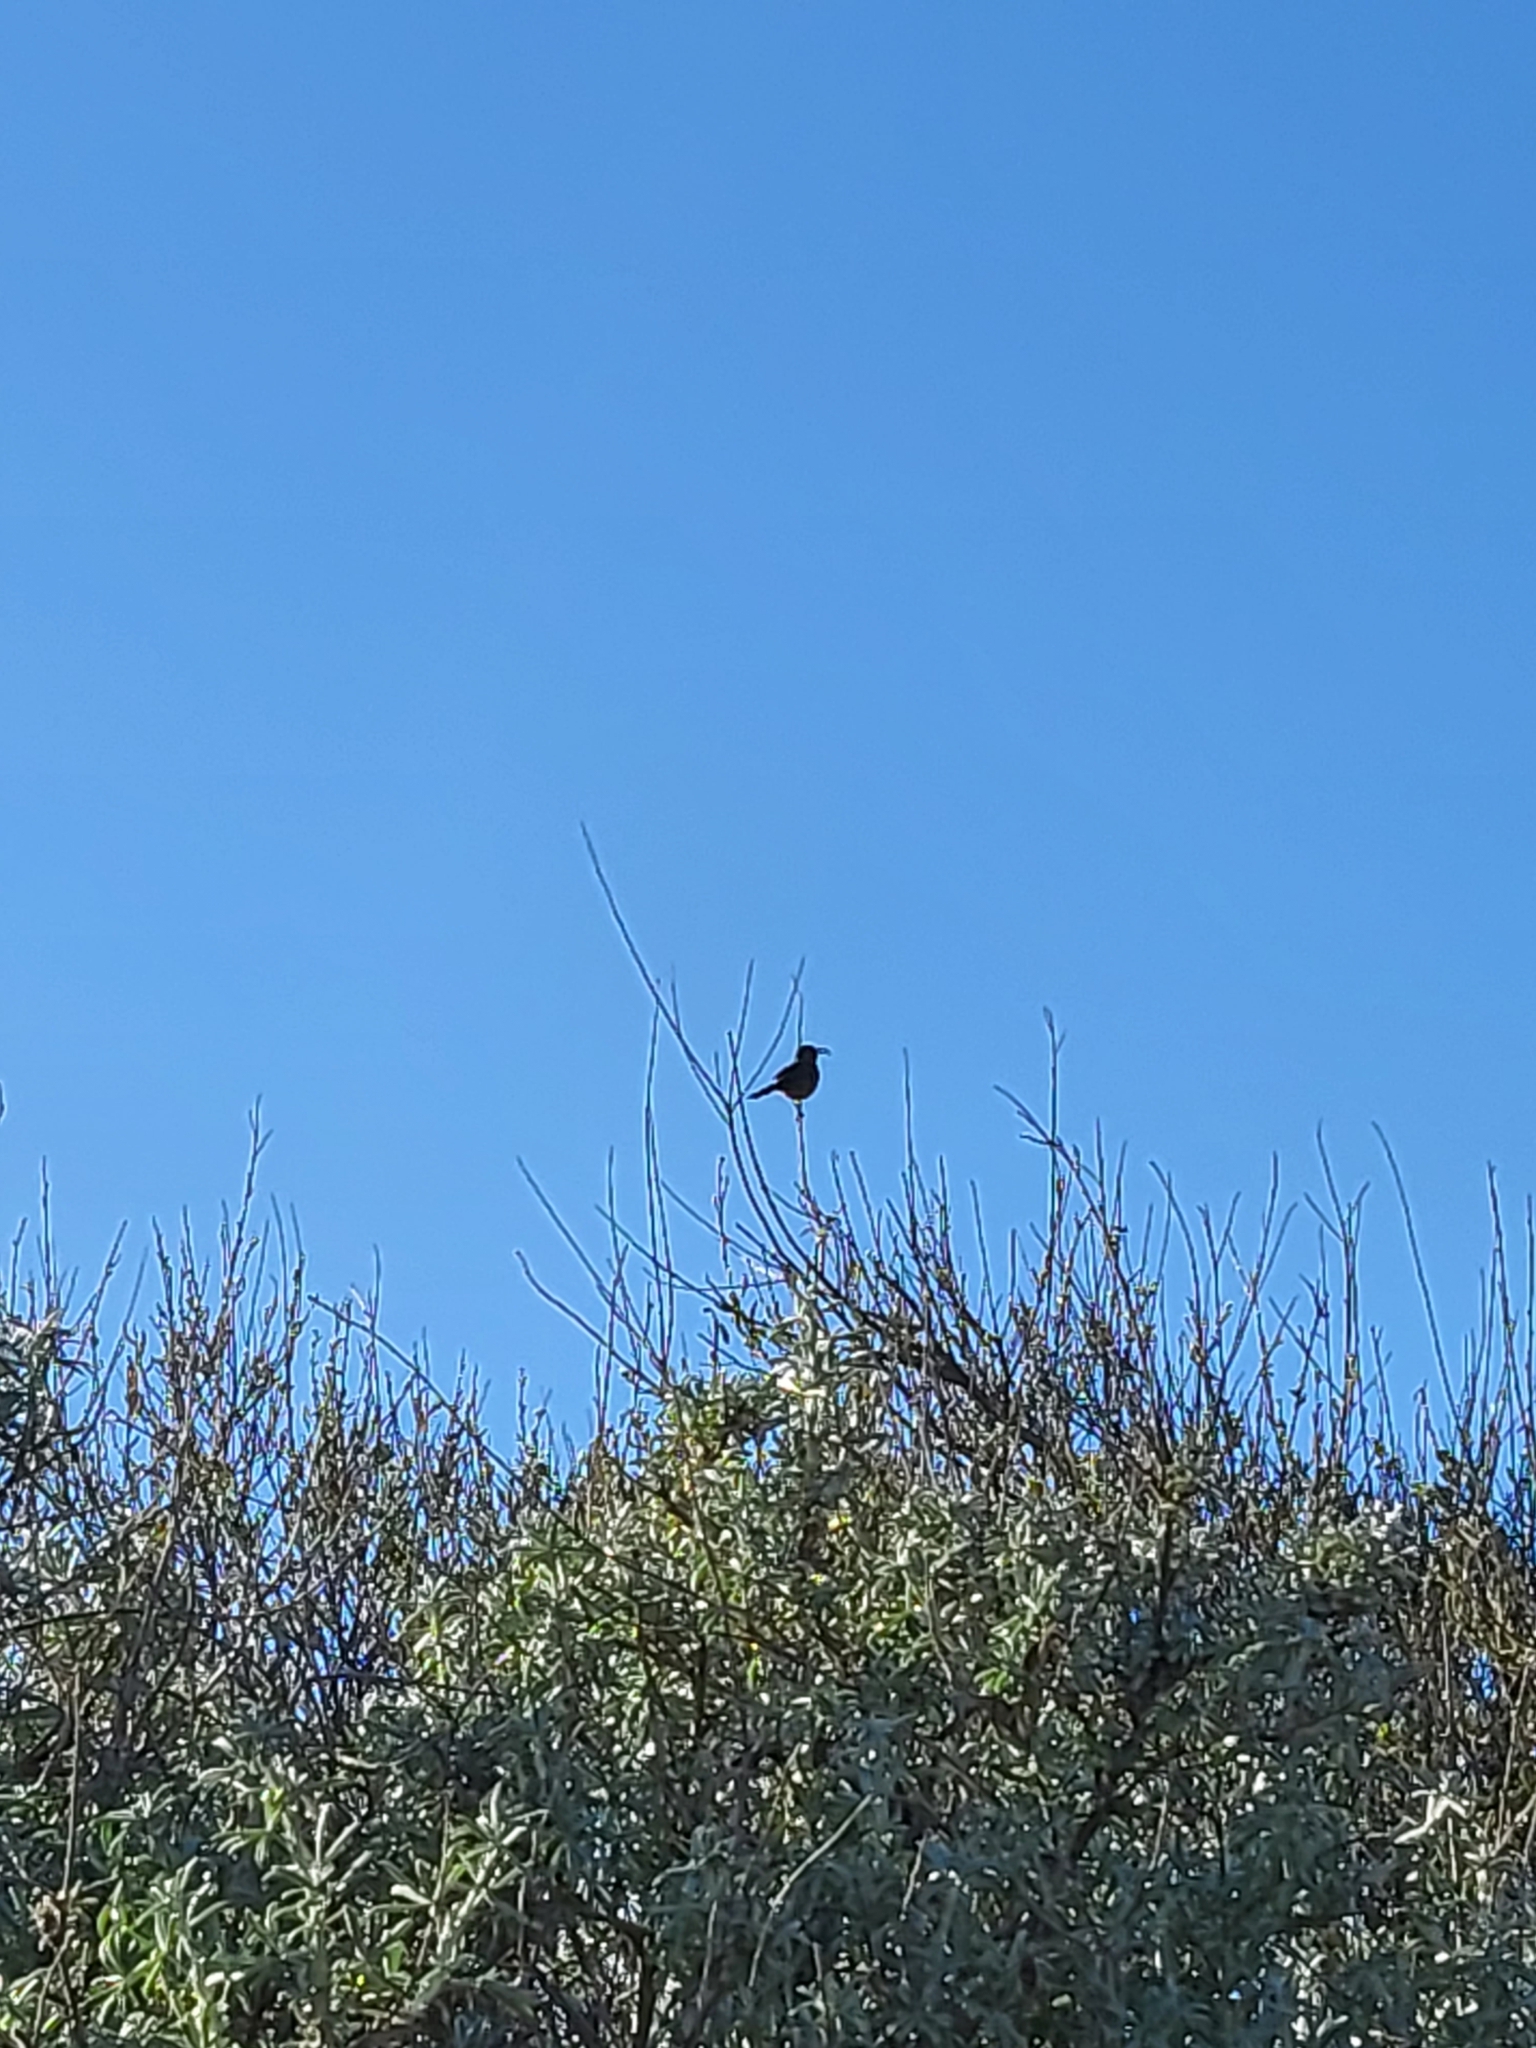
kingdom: Animalia
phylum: Chordata
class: Aves
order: Passeriformes
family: Mimidae
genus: Toxostoma
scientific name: Toxostoma redivivum
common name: California thrasher
